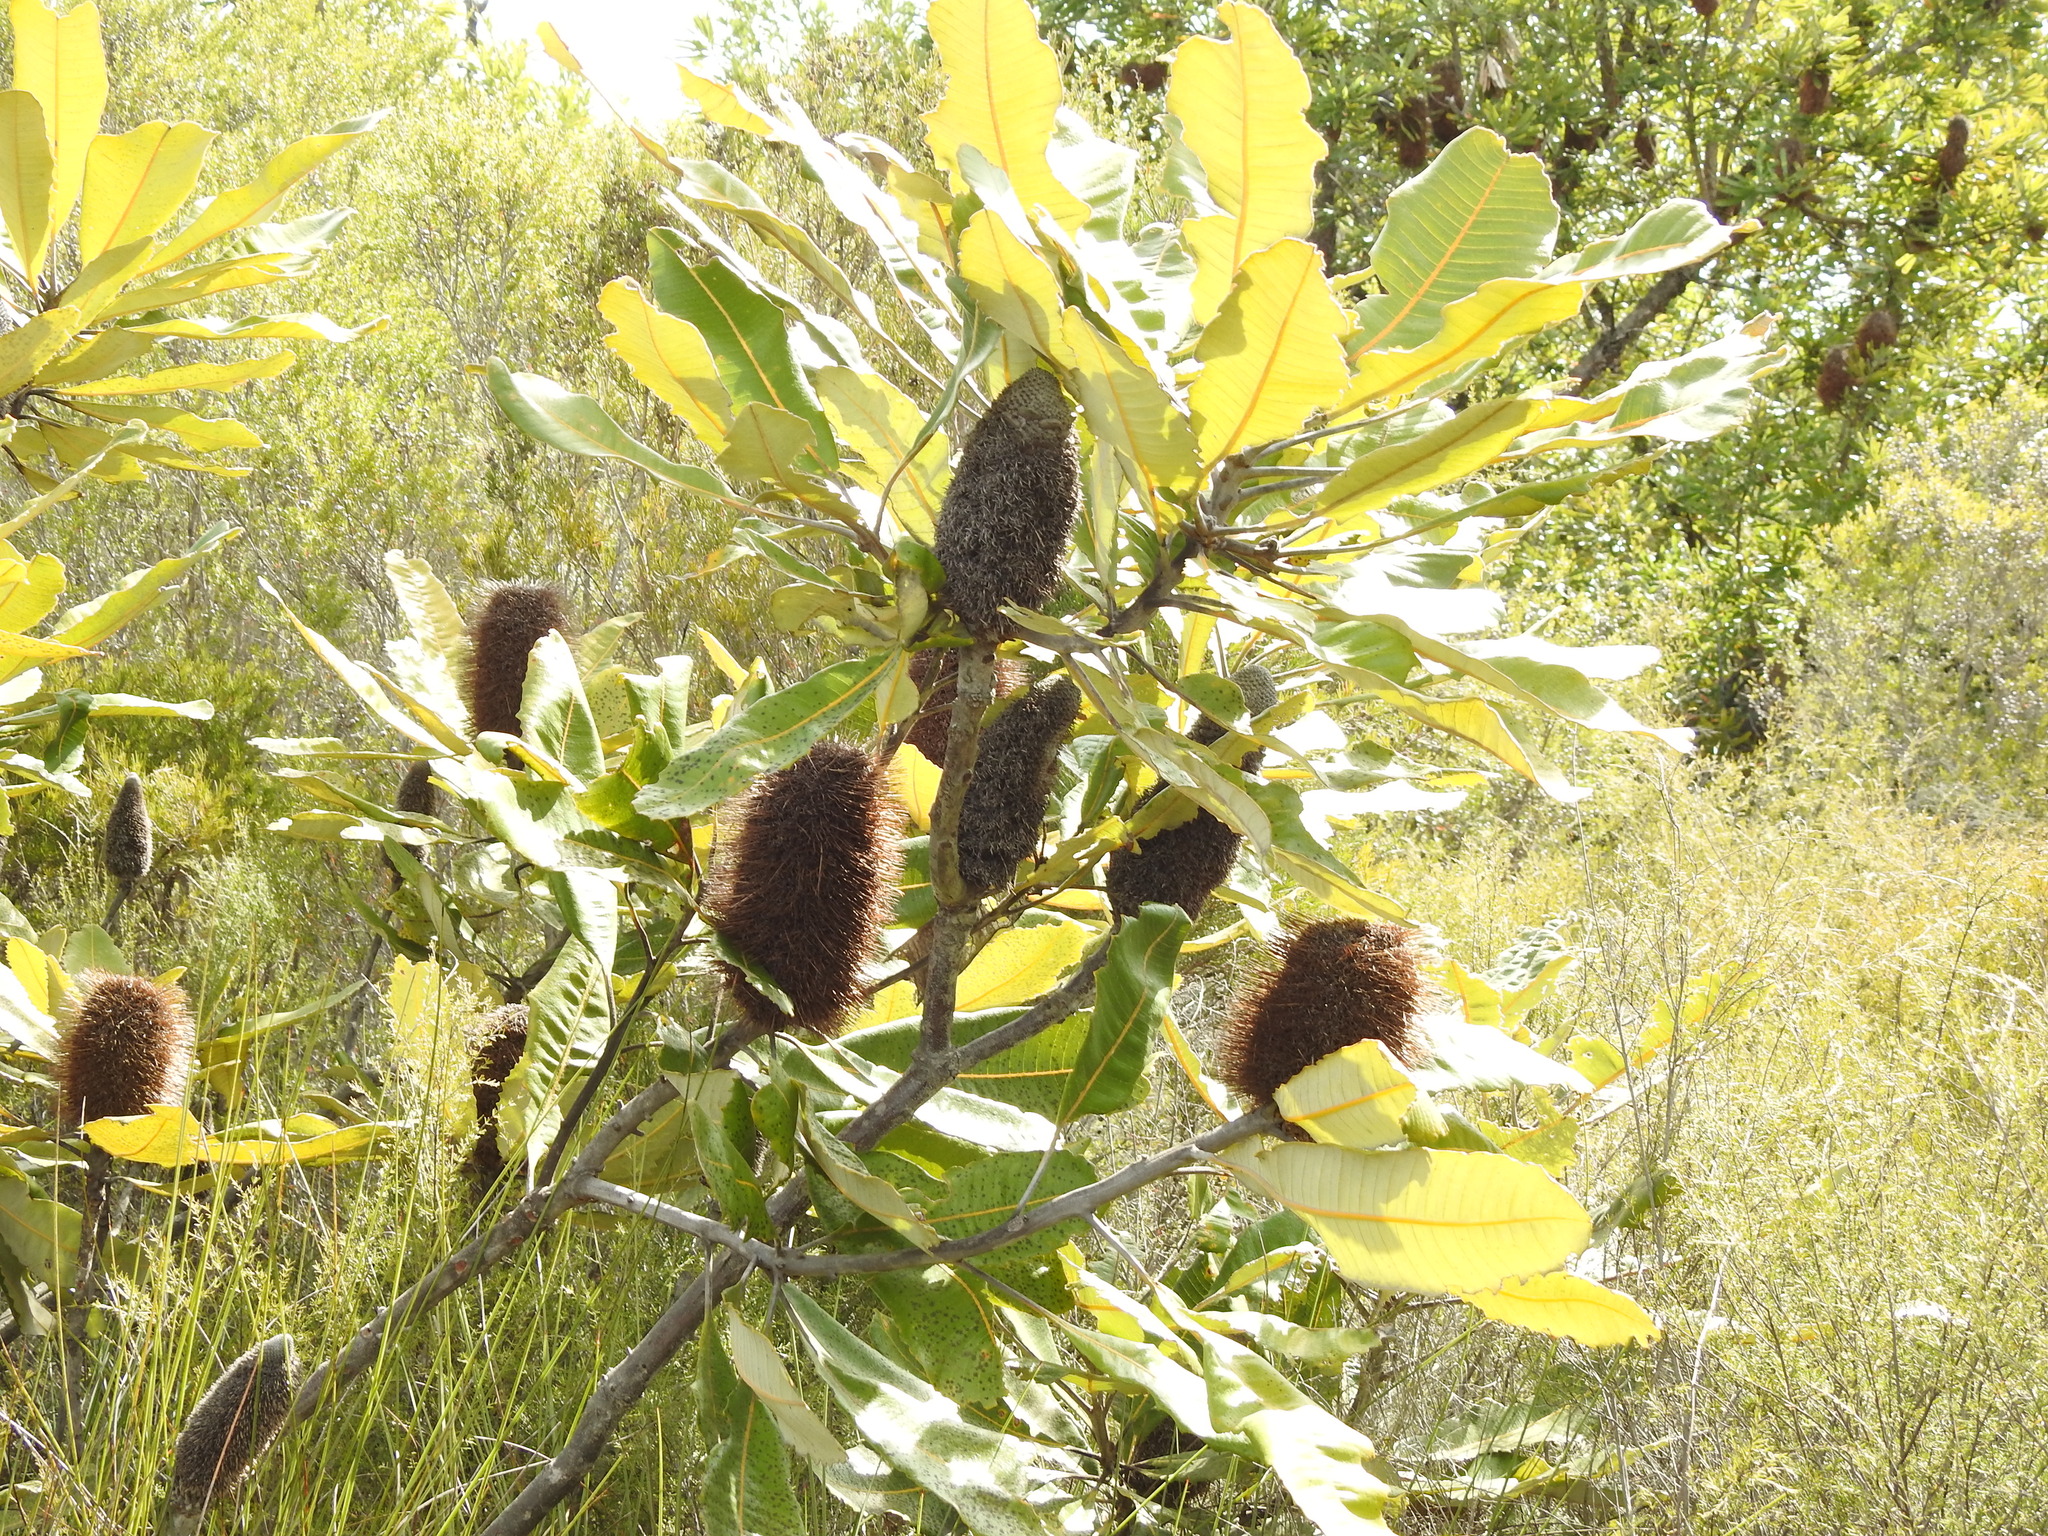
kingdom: Plantae
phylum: Tracheophyta
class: Magnoliopsida
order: Proteales
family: Proteaceae
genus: Banksia
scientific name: Banksia robur
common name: Broadleaf banksia
